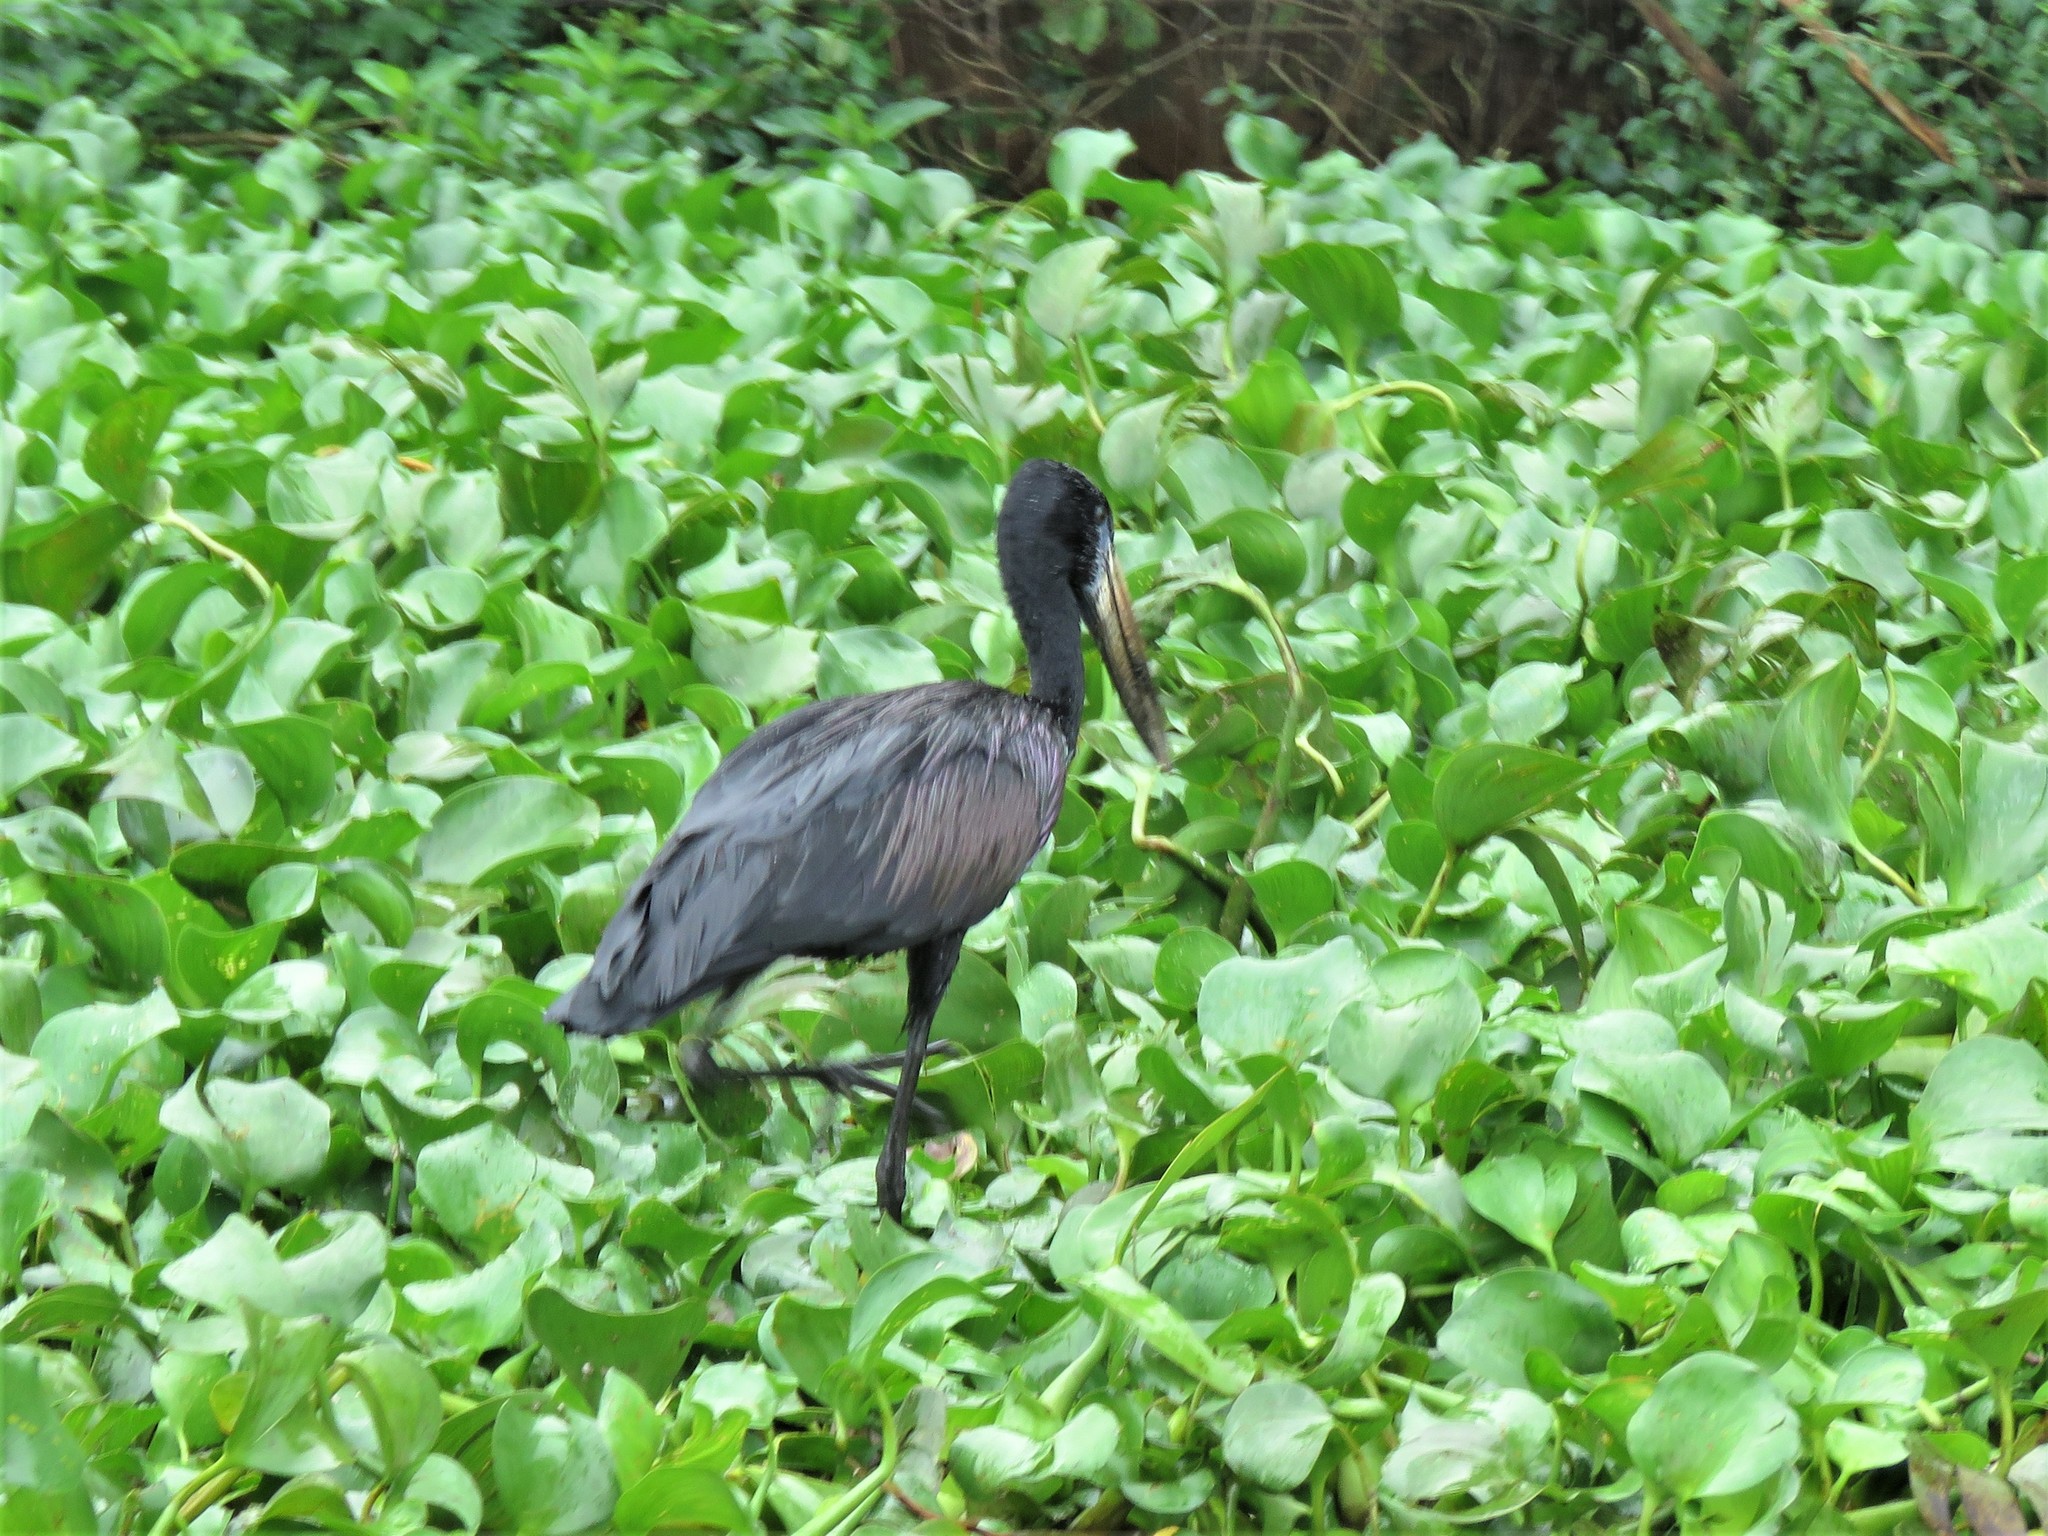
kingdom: Animalia
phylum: Chordata
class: Aves
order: Ciconiiformes
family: Ciconiidae
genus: Anastomus
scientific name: Anastomus lamelligerus
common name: African openbill
